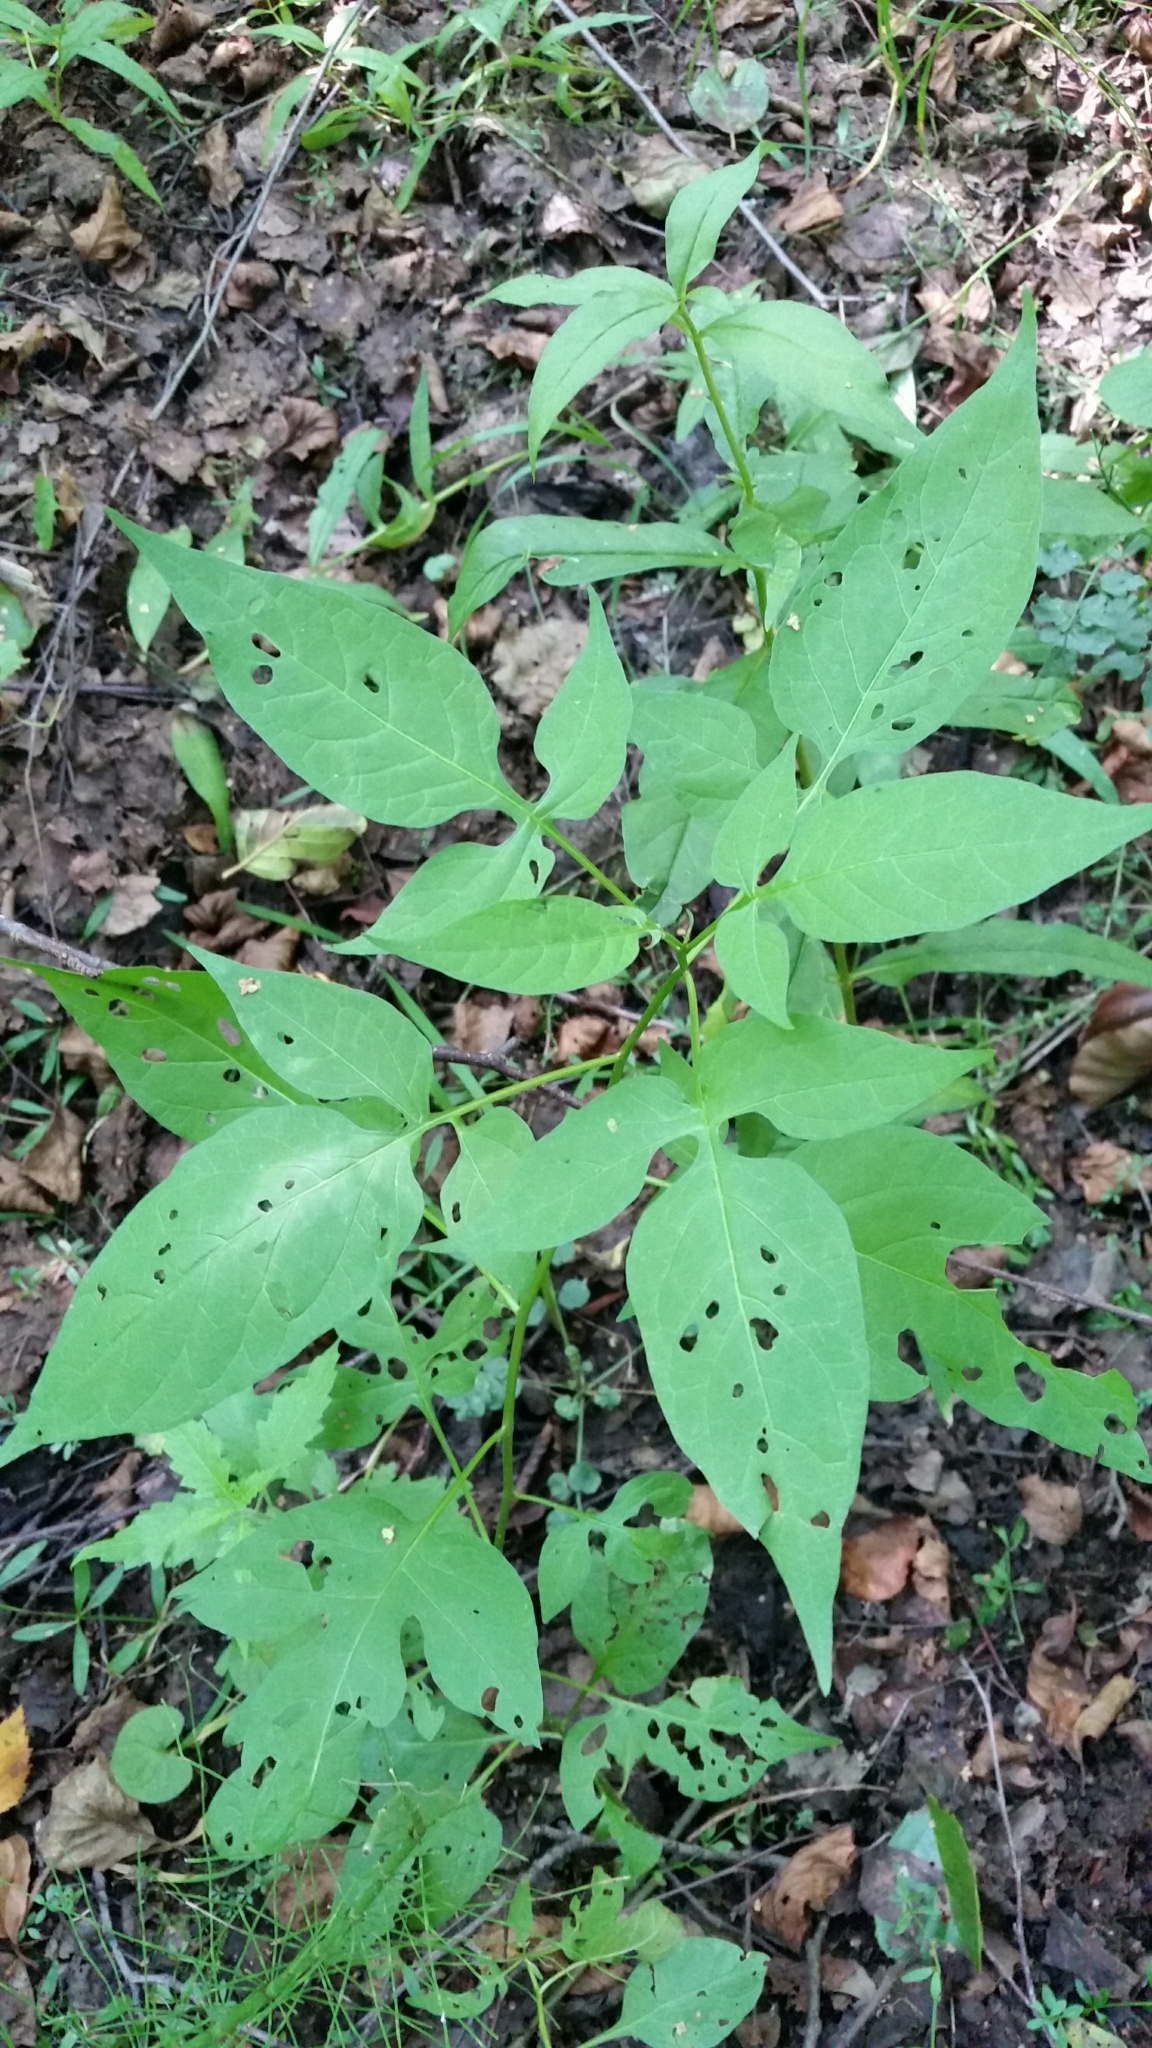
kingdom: Plantae
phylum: Tracheophyta
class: Magnoliopsida
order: Solanales
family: Solanaceae
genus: Solanum
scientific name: Solanum dulcamara
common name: Climbing nightshade
